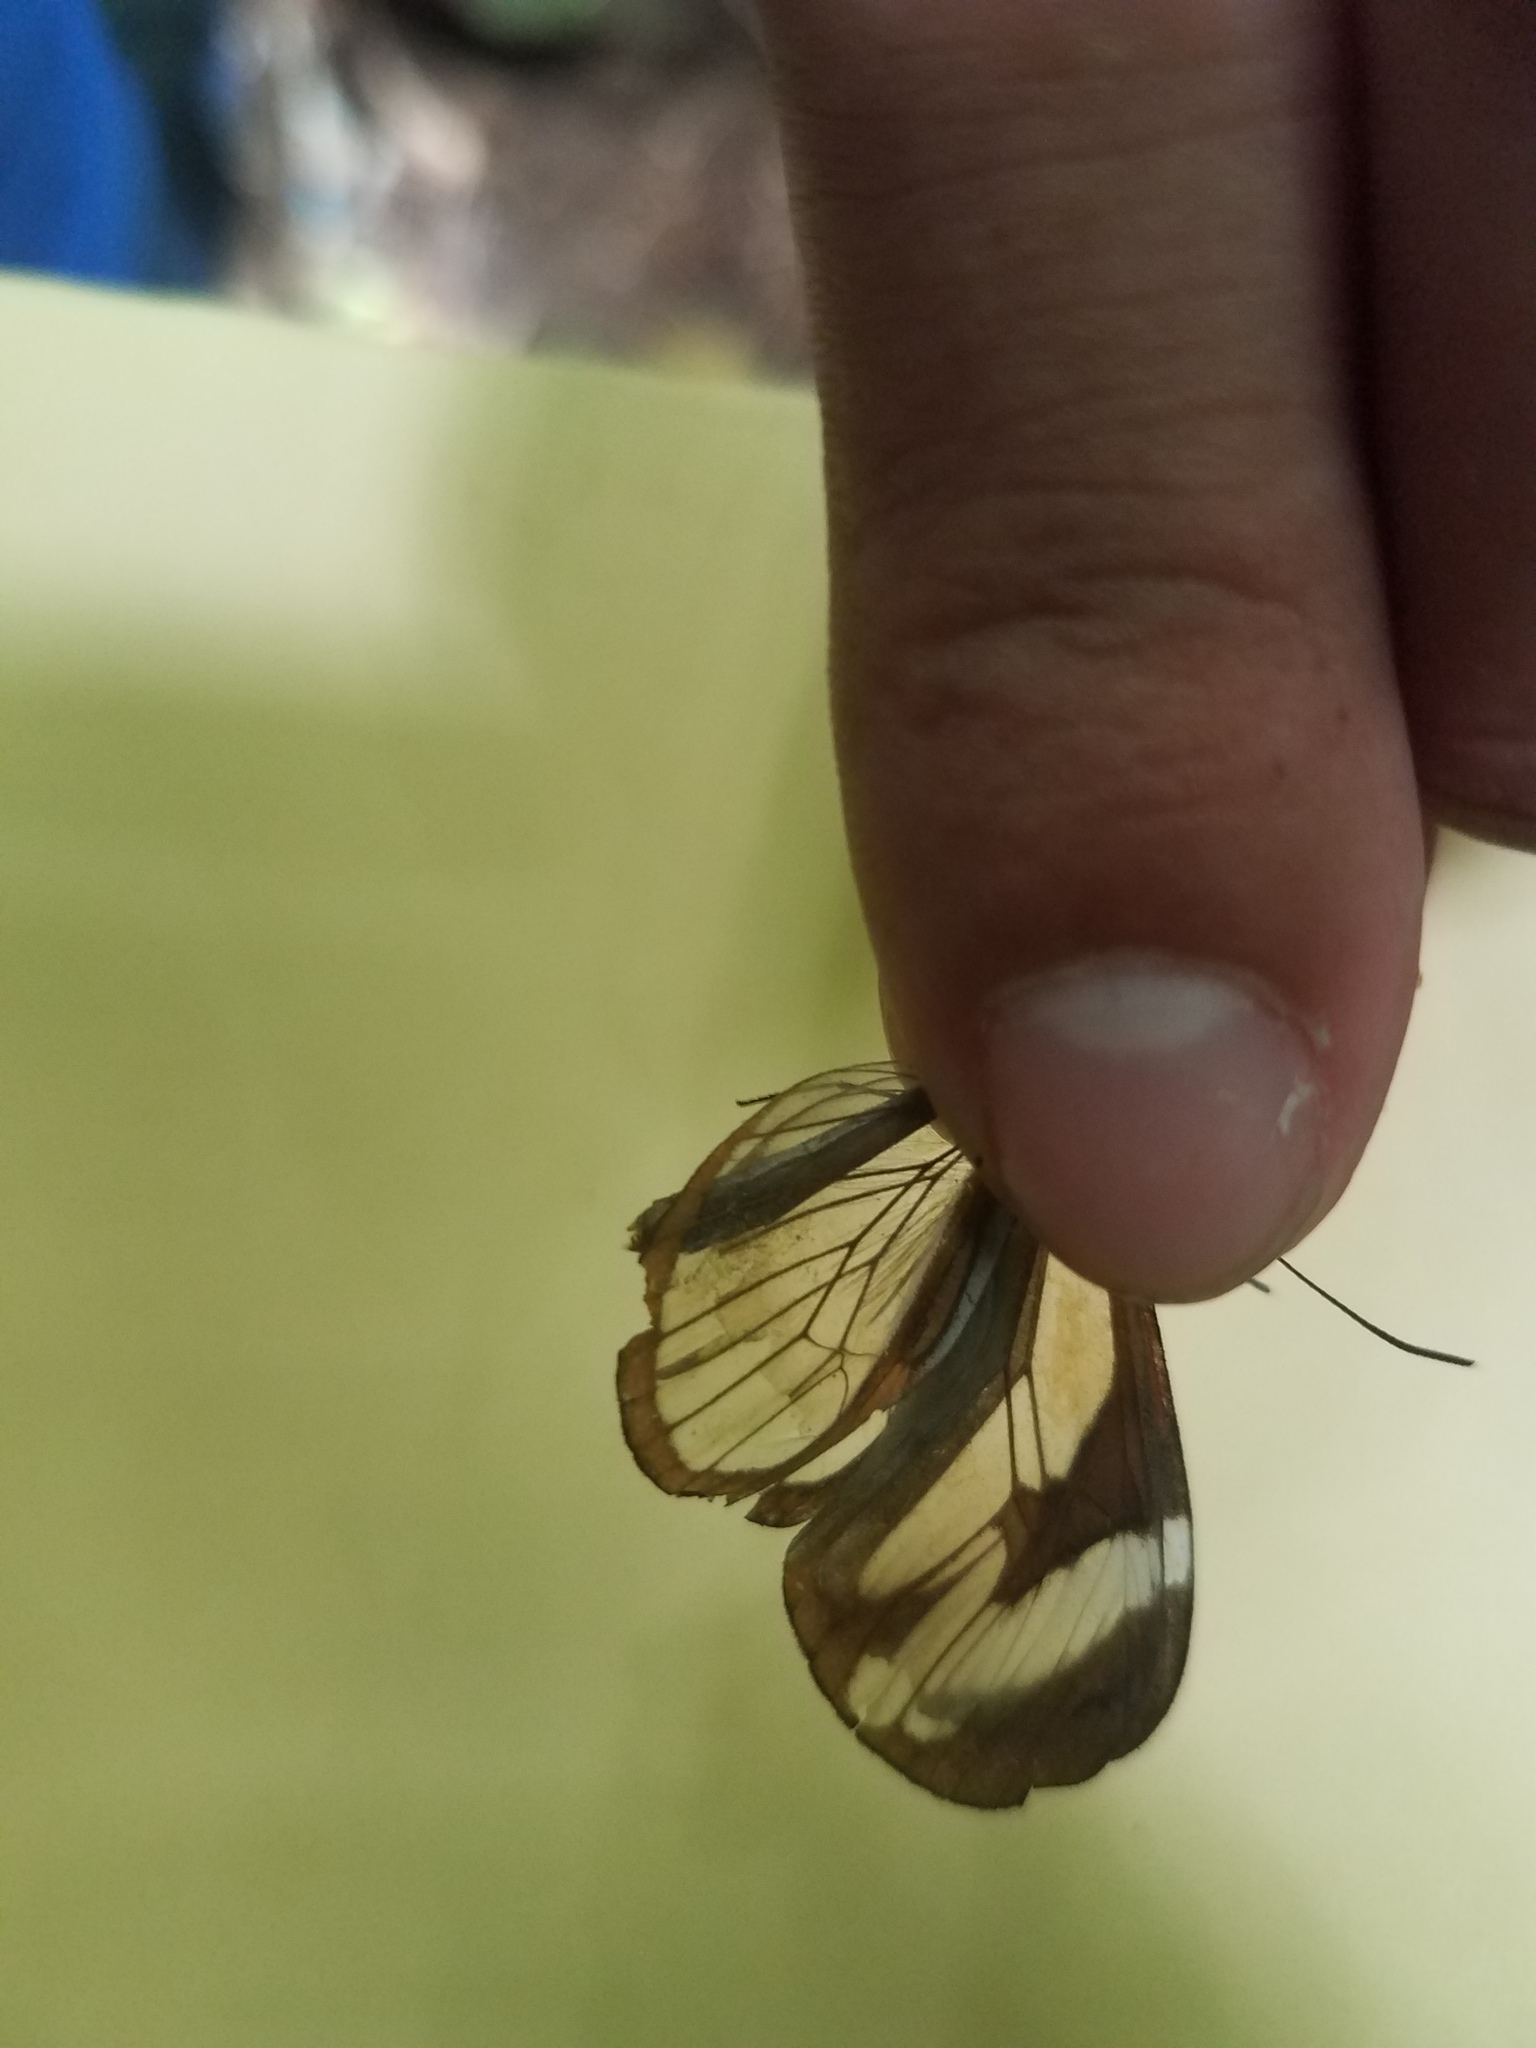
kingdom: Animalia
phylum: Arthropoda
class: Insecta
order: Lepidoptera
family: Nymphalidae
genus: Ithomia
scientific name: Ithomia patilla
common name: Patilla clearwing
